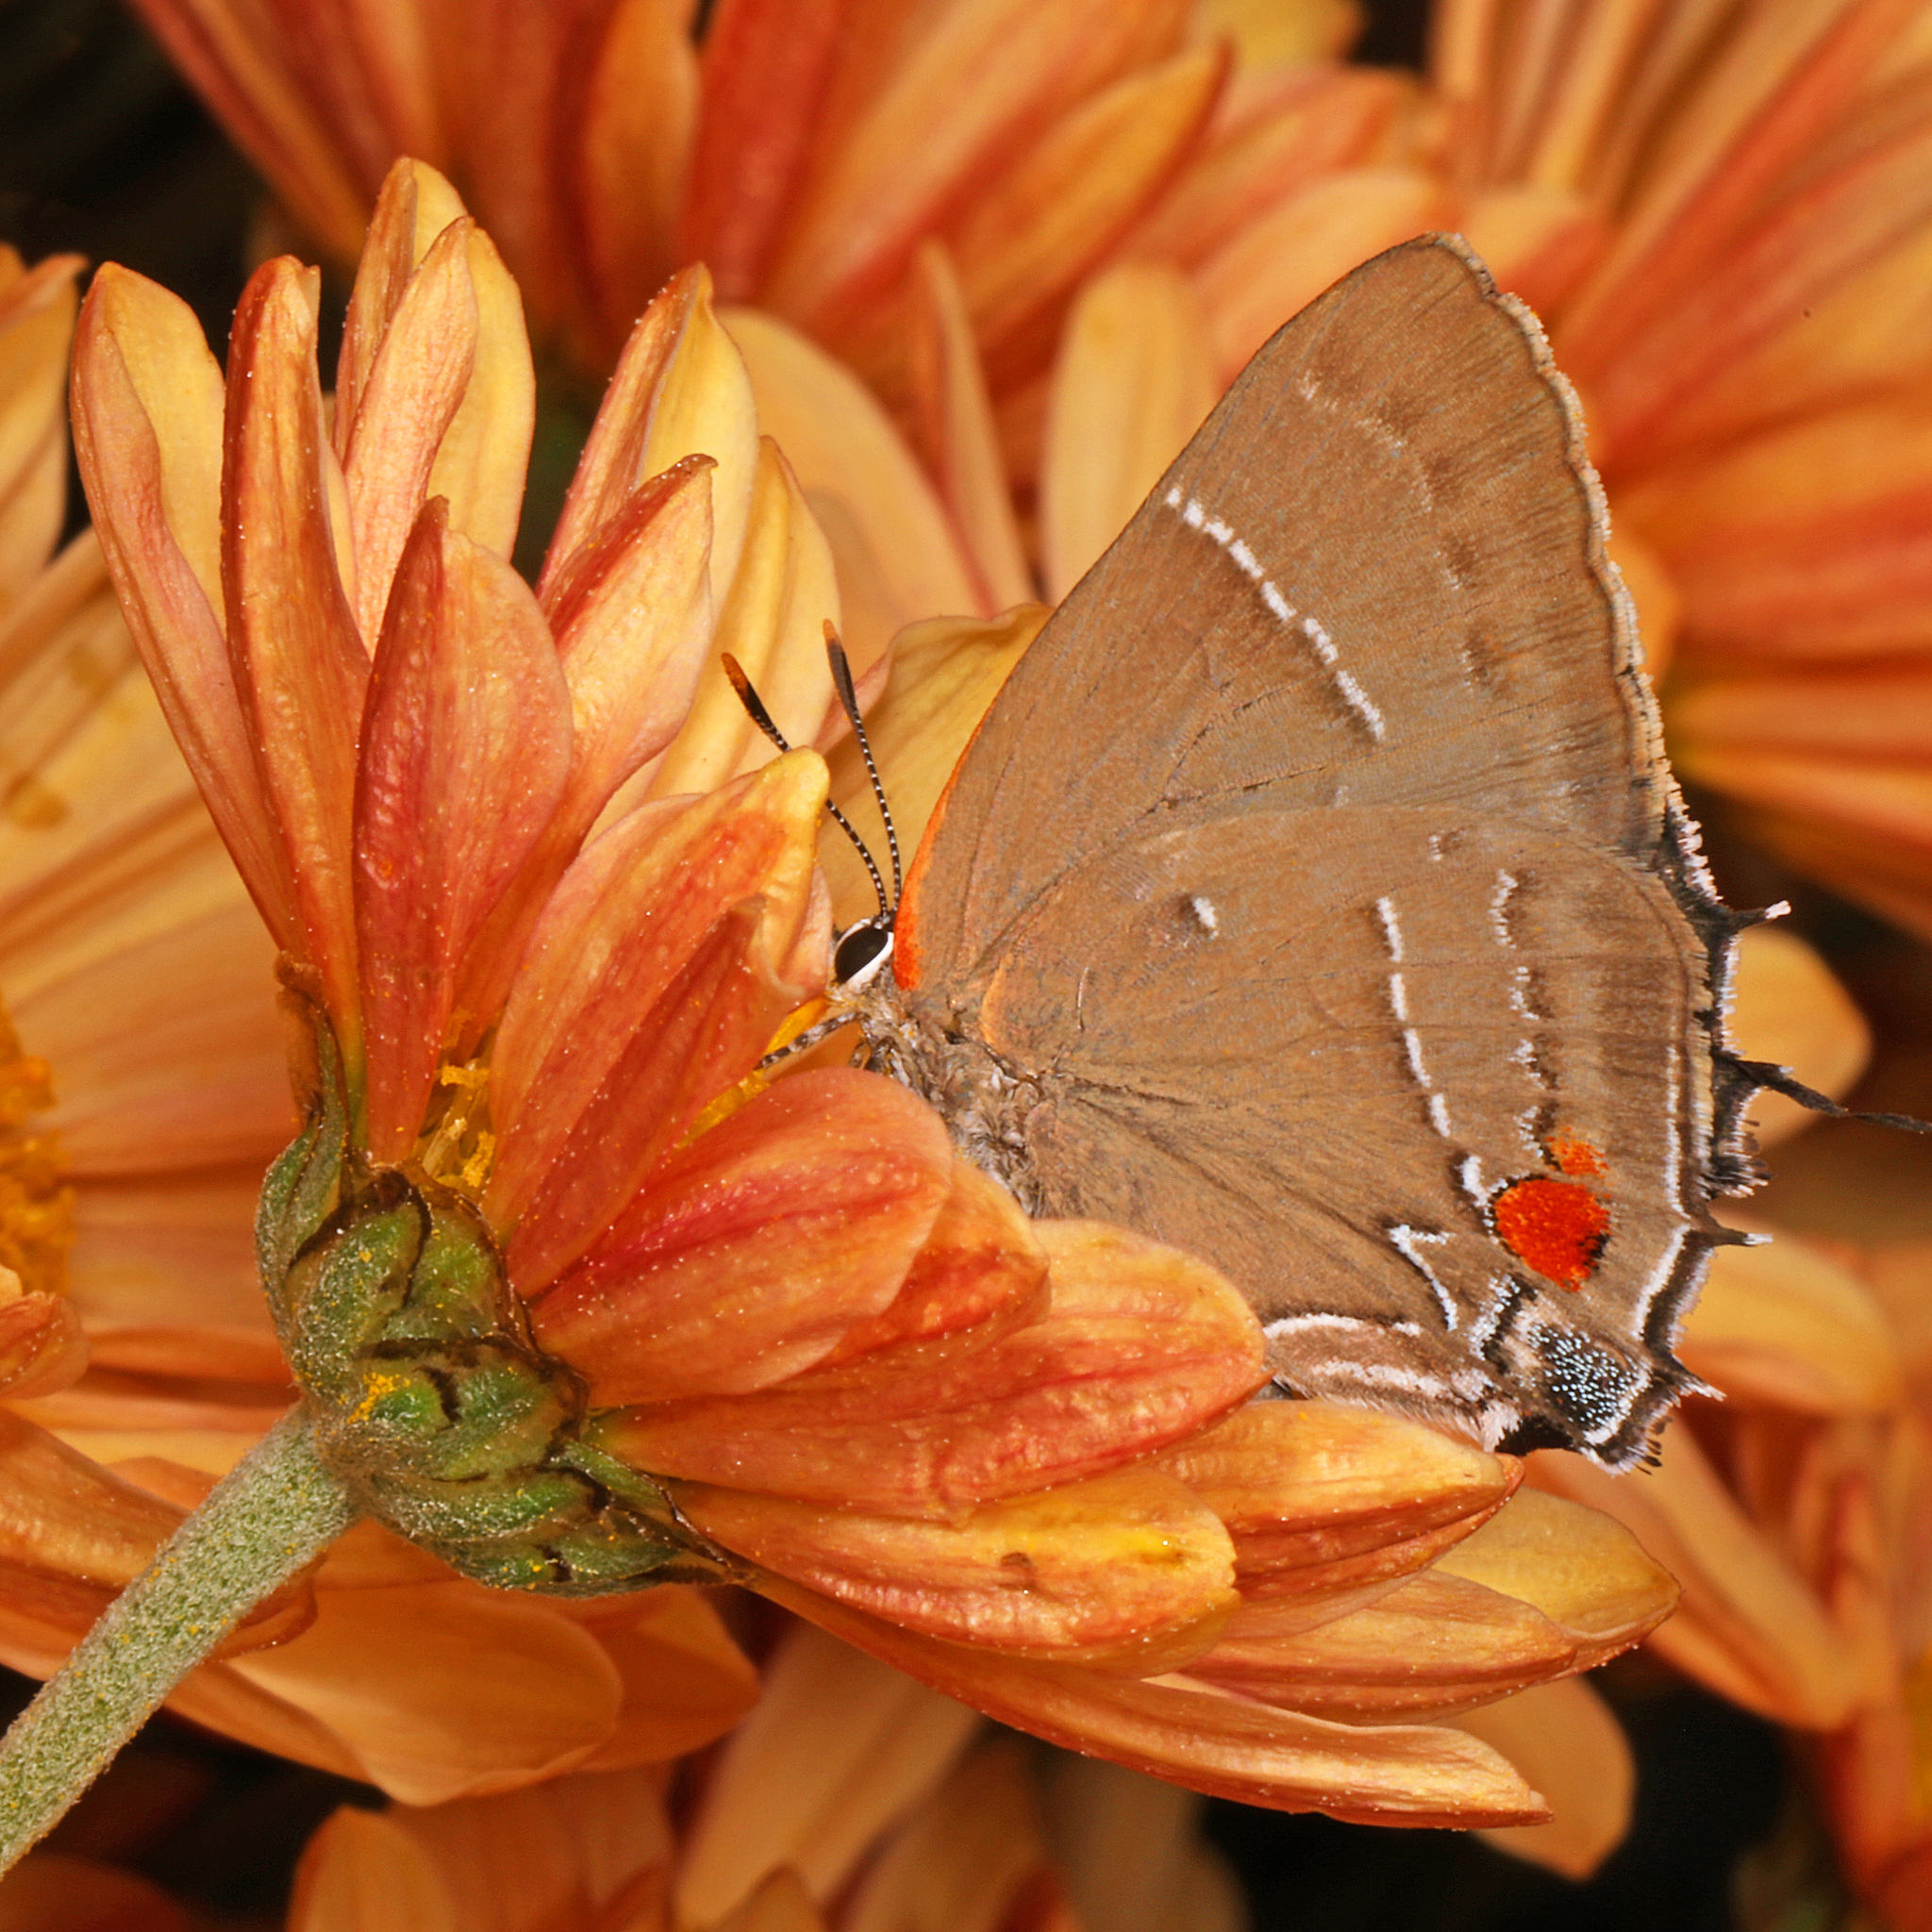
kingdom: Animalia
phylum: Arthropoda
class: Insecta
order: Lepidoptera
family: Lycaenidae
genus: Parrhasius
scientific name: Parrhasius m-album
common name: White m hairstreak
